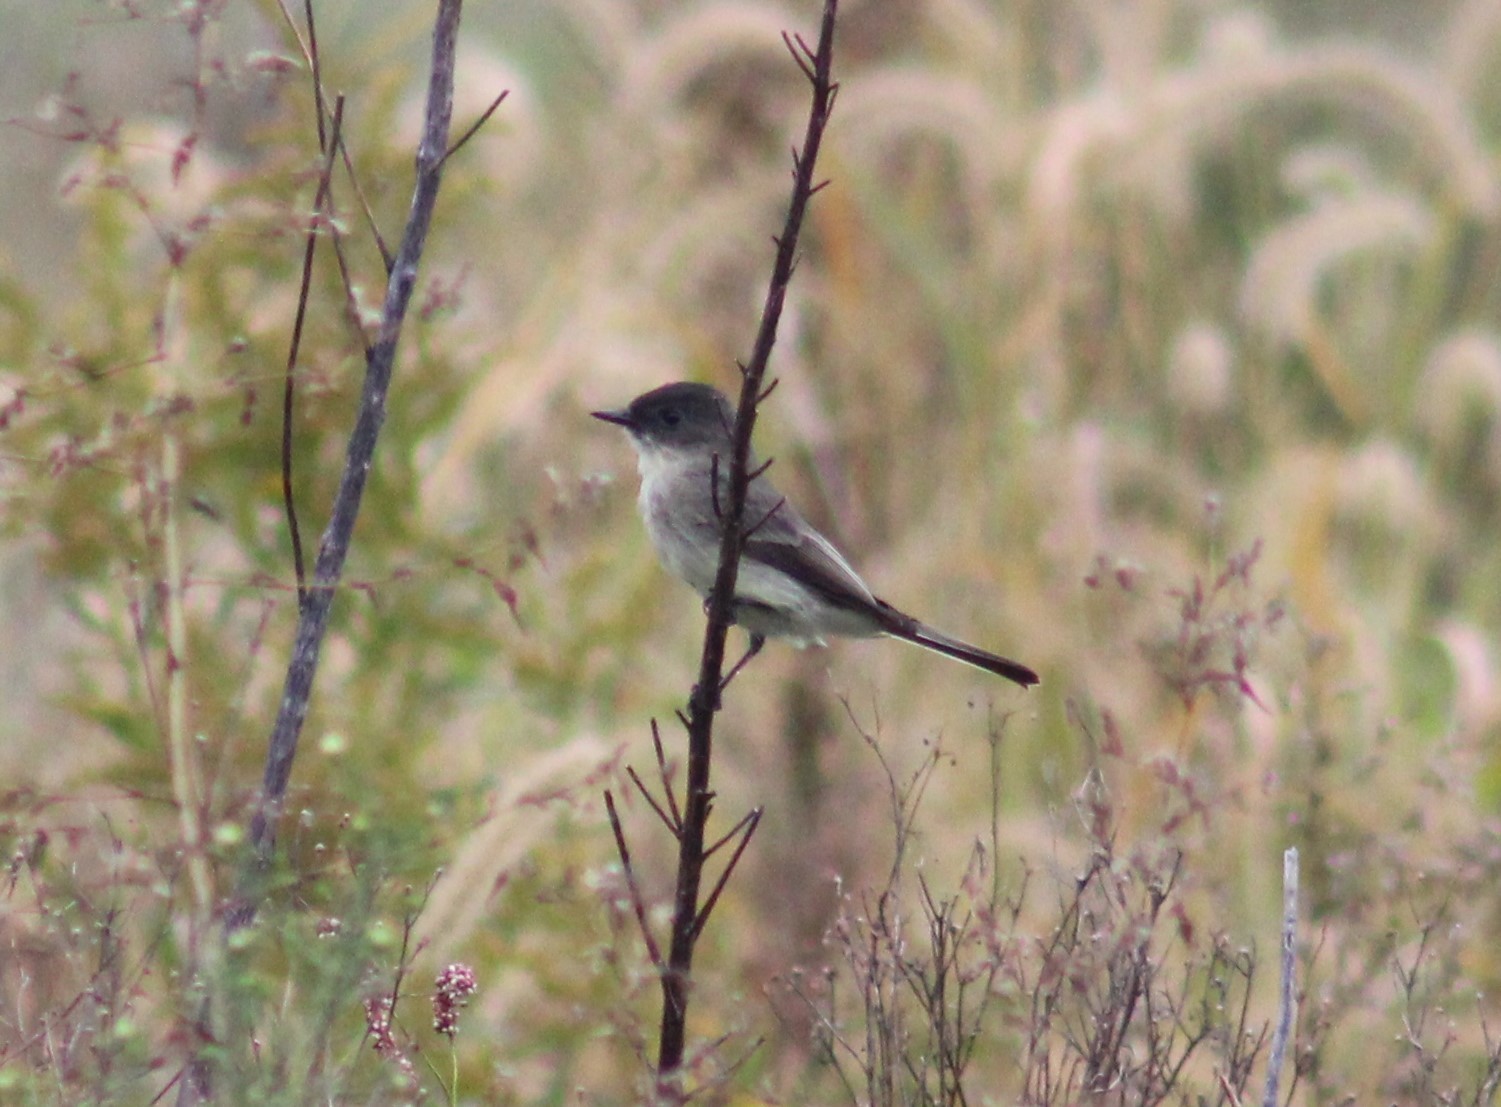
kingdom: Animalia
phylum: Chordata
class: Aves
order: Passeriformes
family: Tyrannidae
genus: Sayornis
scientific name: Sayornis phoebe
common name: Eastern phoebe
